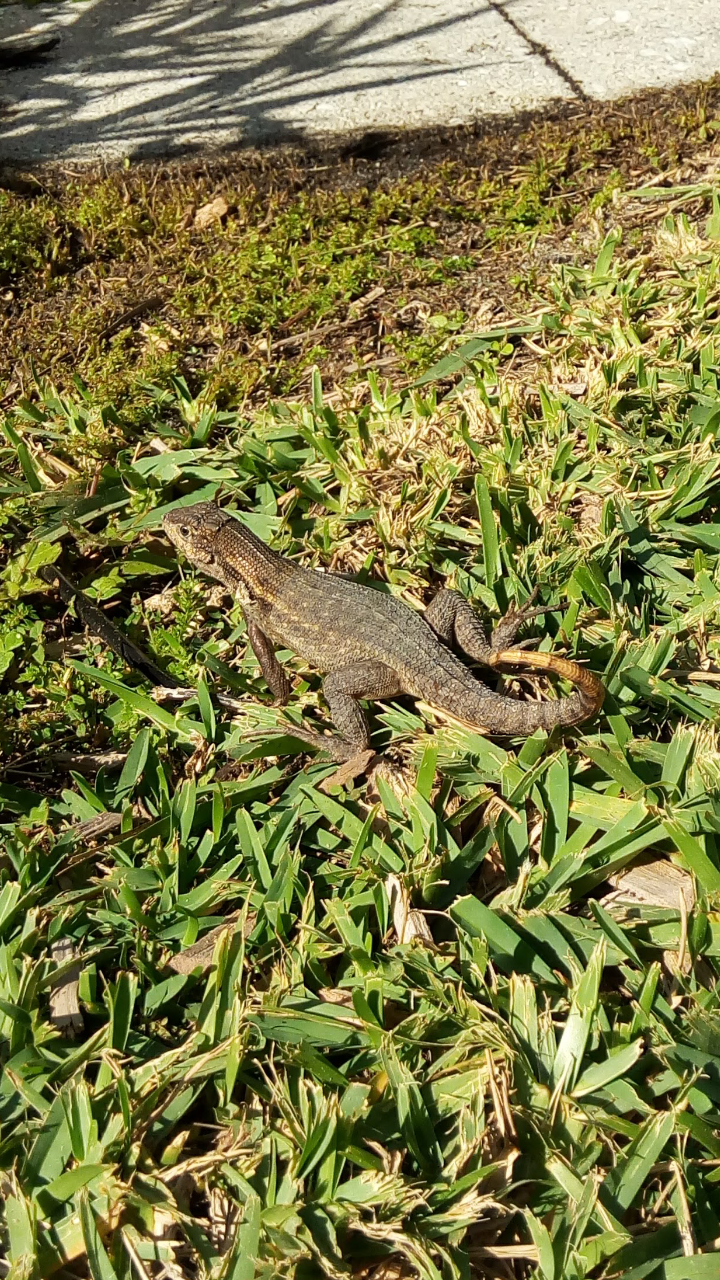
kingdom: Animalia
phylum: Chordata
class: Squamata
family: Leiocephalidae
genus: Leiocephalus
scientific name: Leiocephalus carinatus
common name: Northern curly-tailed lizard
